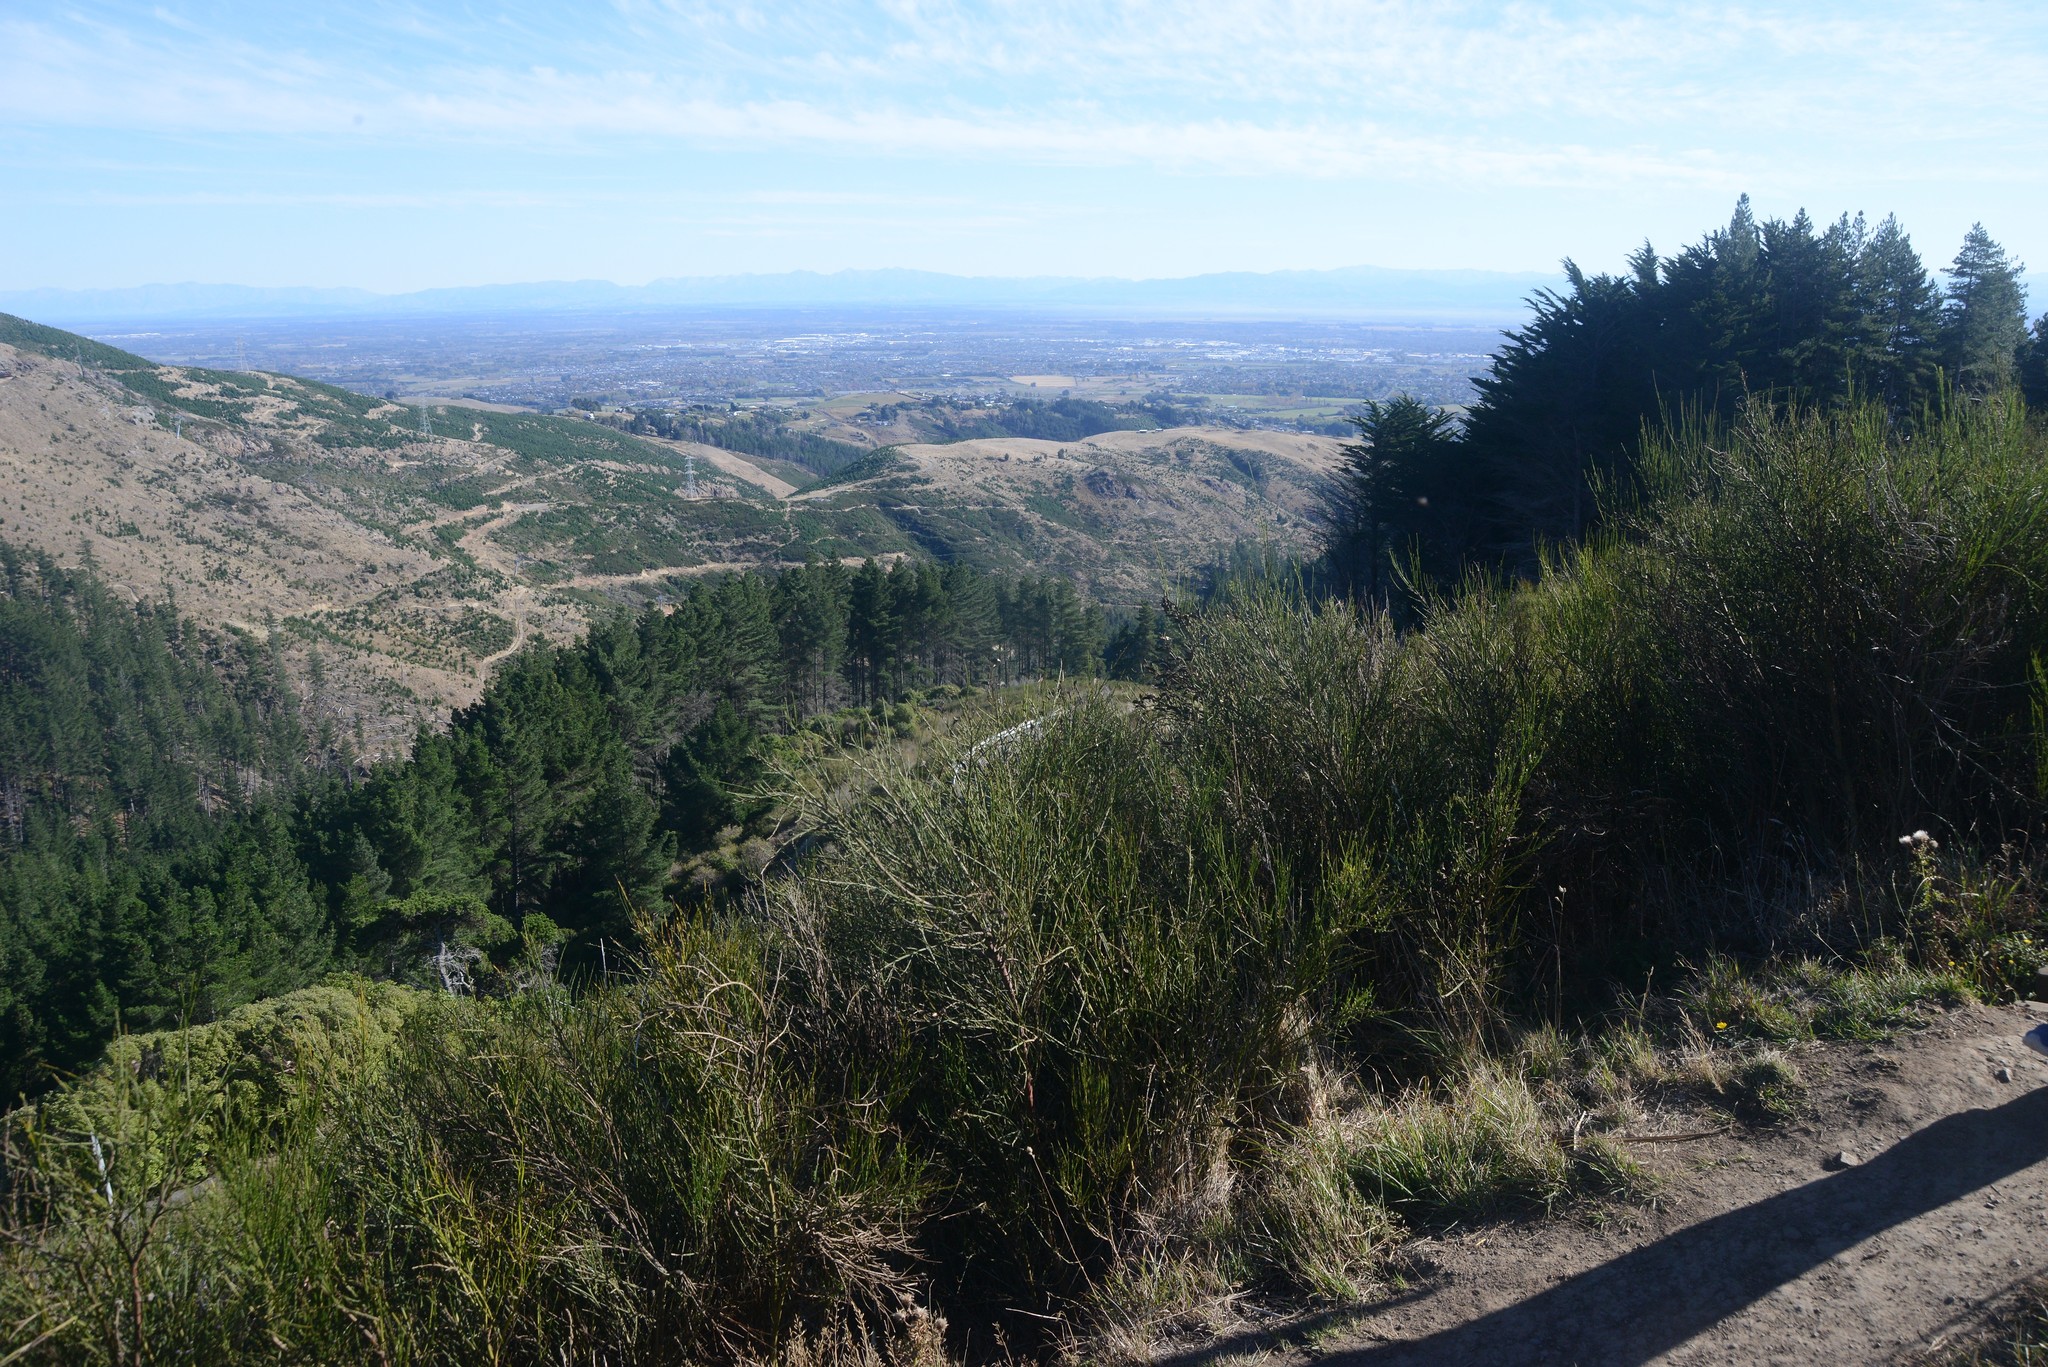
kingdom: Plantae
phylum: Tracheophyta
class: Magnoliopsida
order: Fabales
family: Fabaceae
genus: Cytisus
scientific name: Cytisus scoparius
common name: Scotch broom
